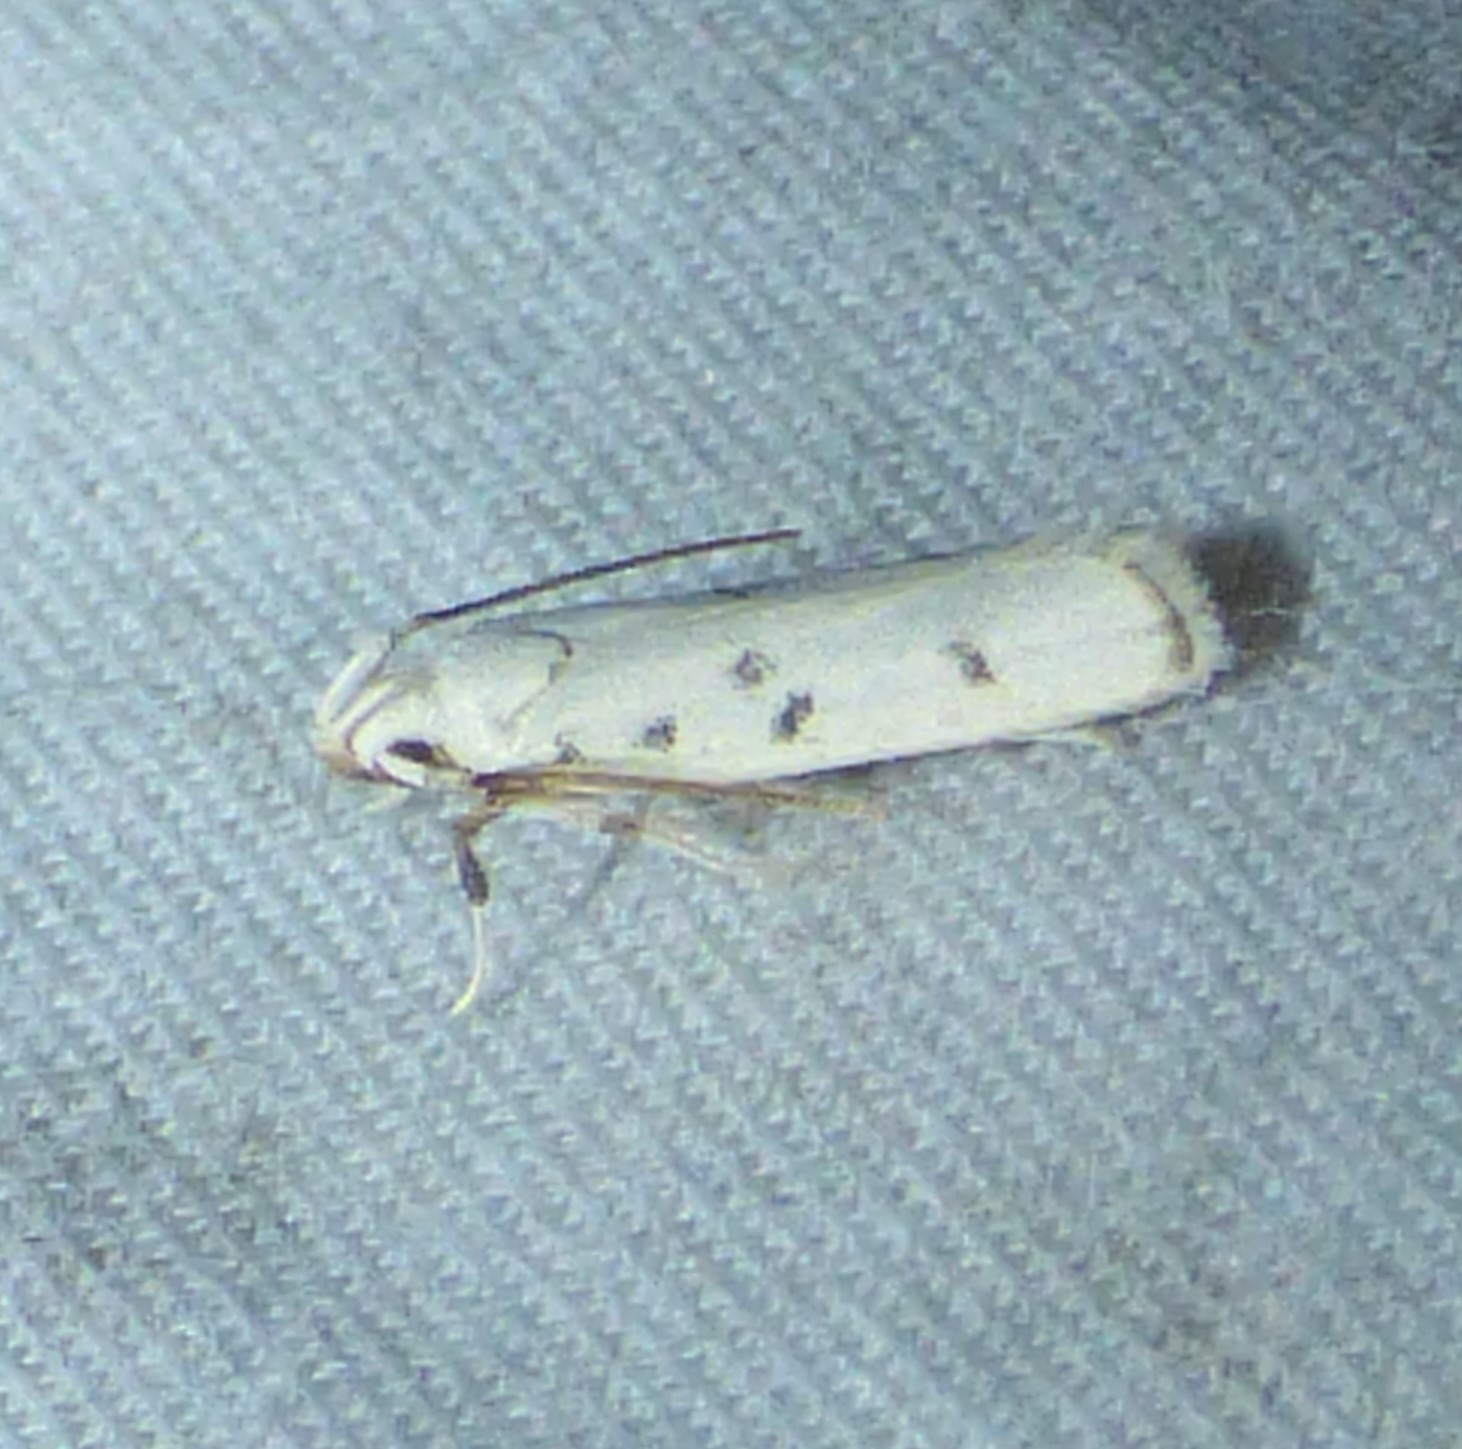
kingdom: Animalia
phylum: Arthropoda
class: Insecta
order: Lepidoptera
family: Autostichidae
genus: Glyphidocera
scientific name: Glyphidocera lactiflosella
